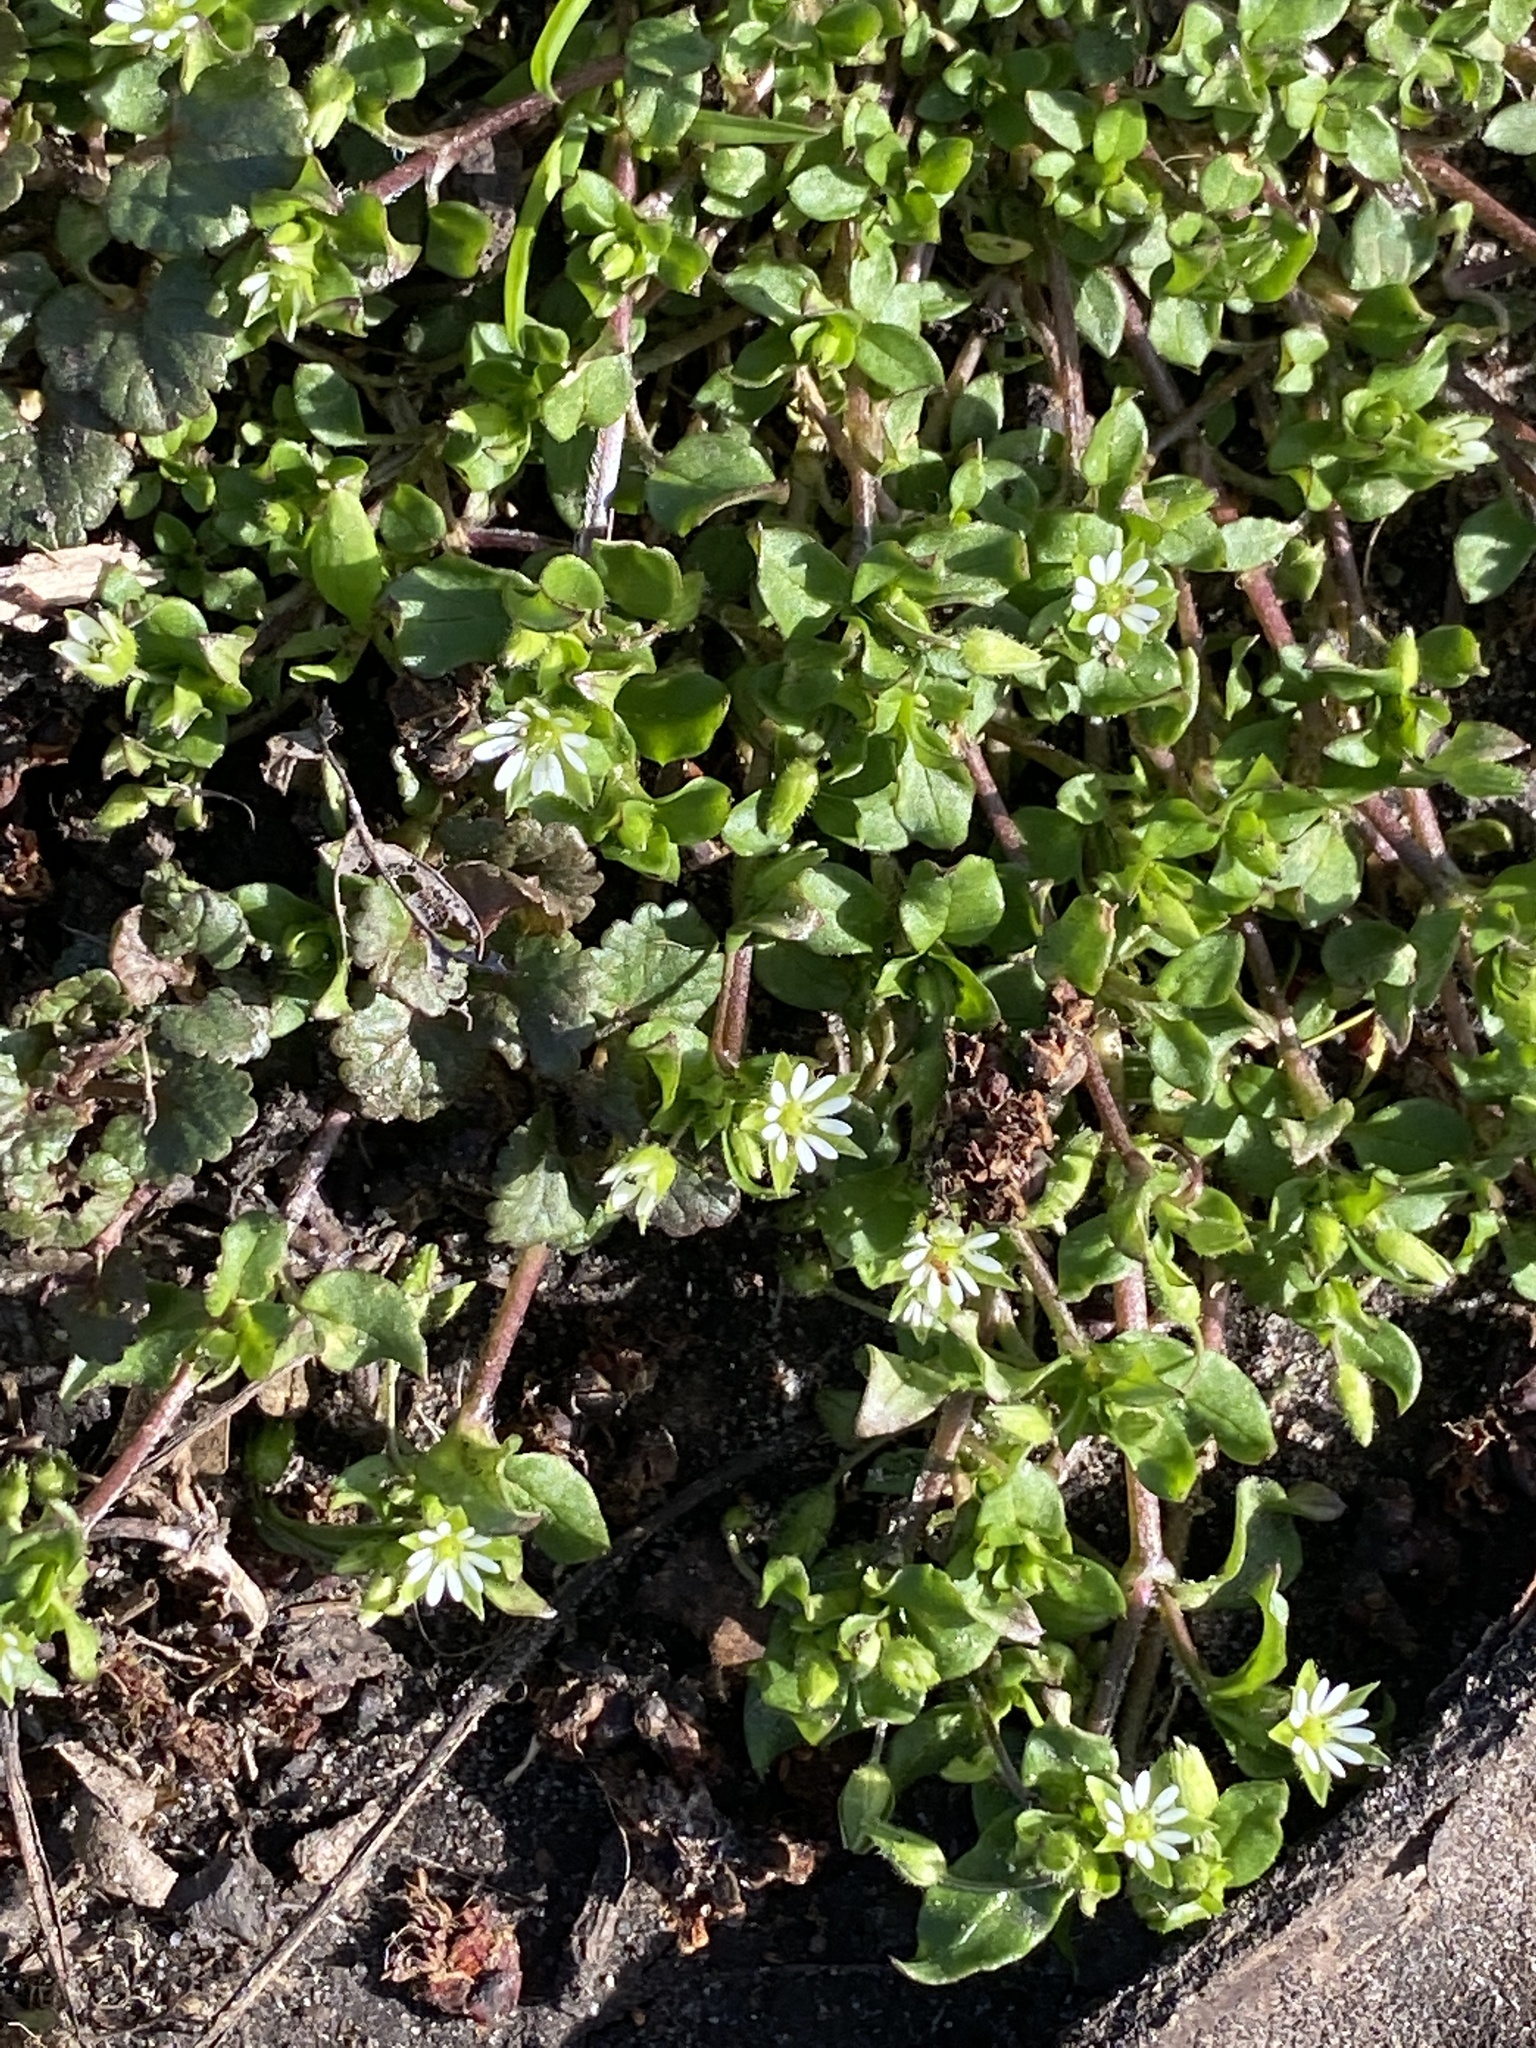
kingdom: Plantae
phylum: Tracheophyta
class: Magnoliopsida
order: Caryophyllales
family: Caryophyllaceae
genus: Stellaria
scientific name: Stellaria media
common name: Common chickweed
